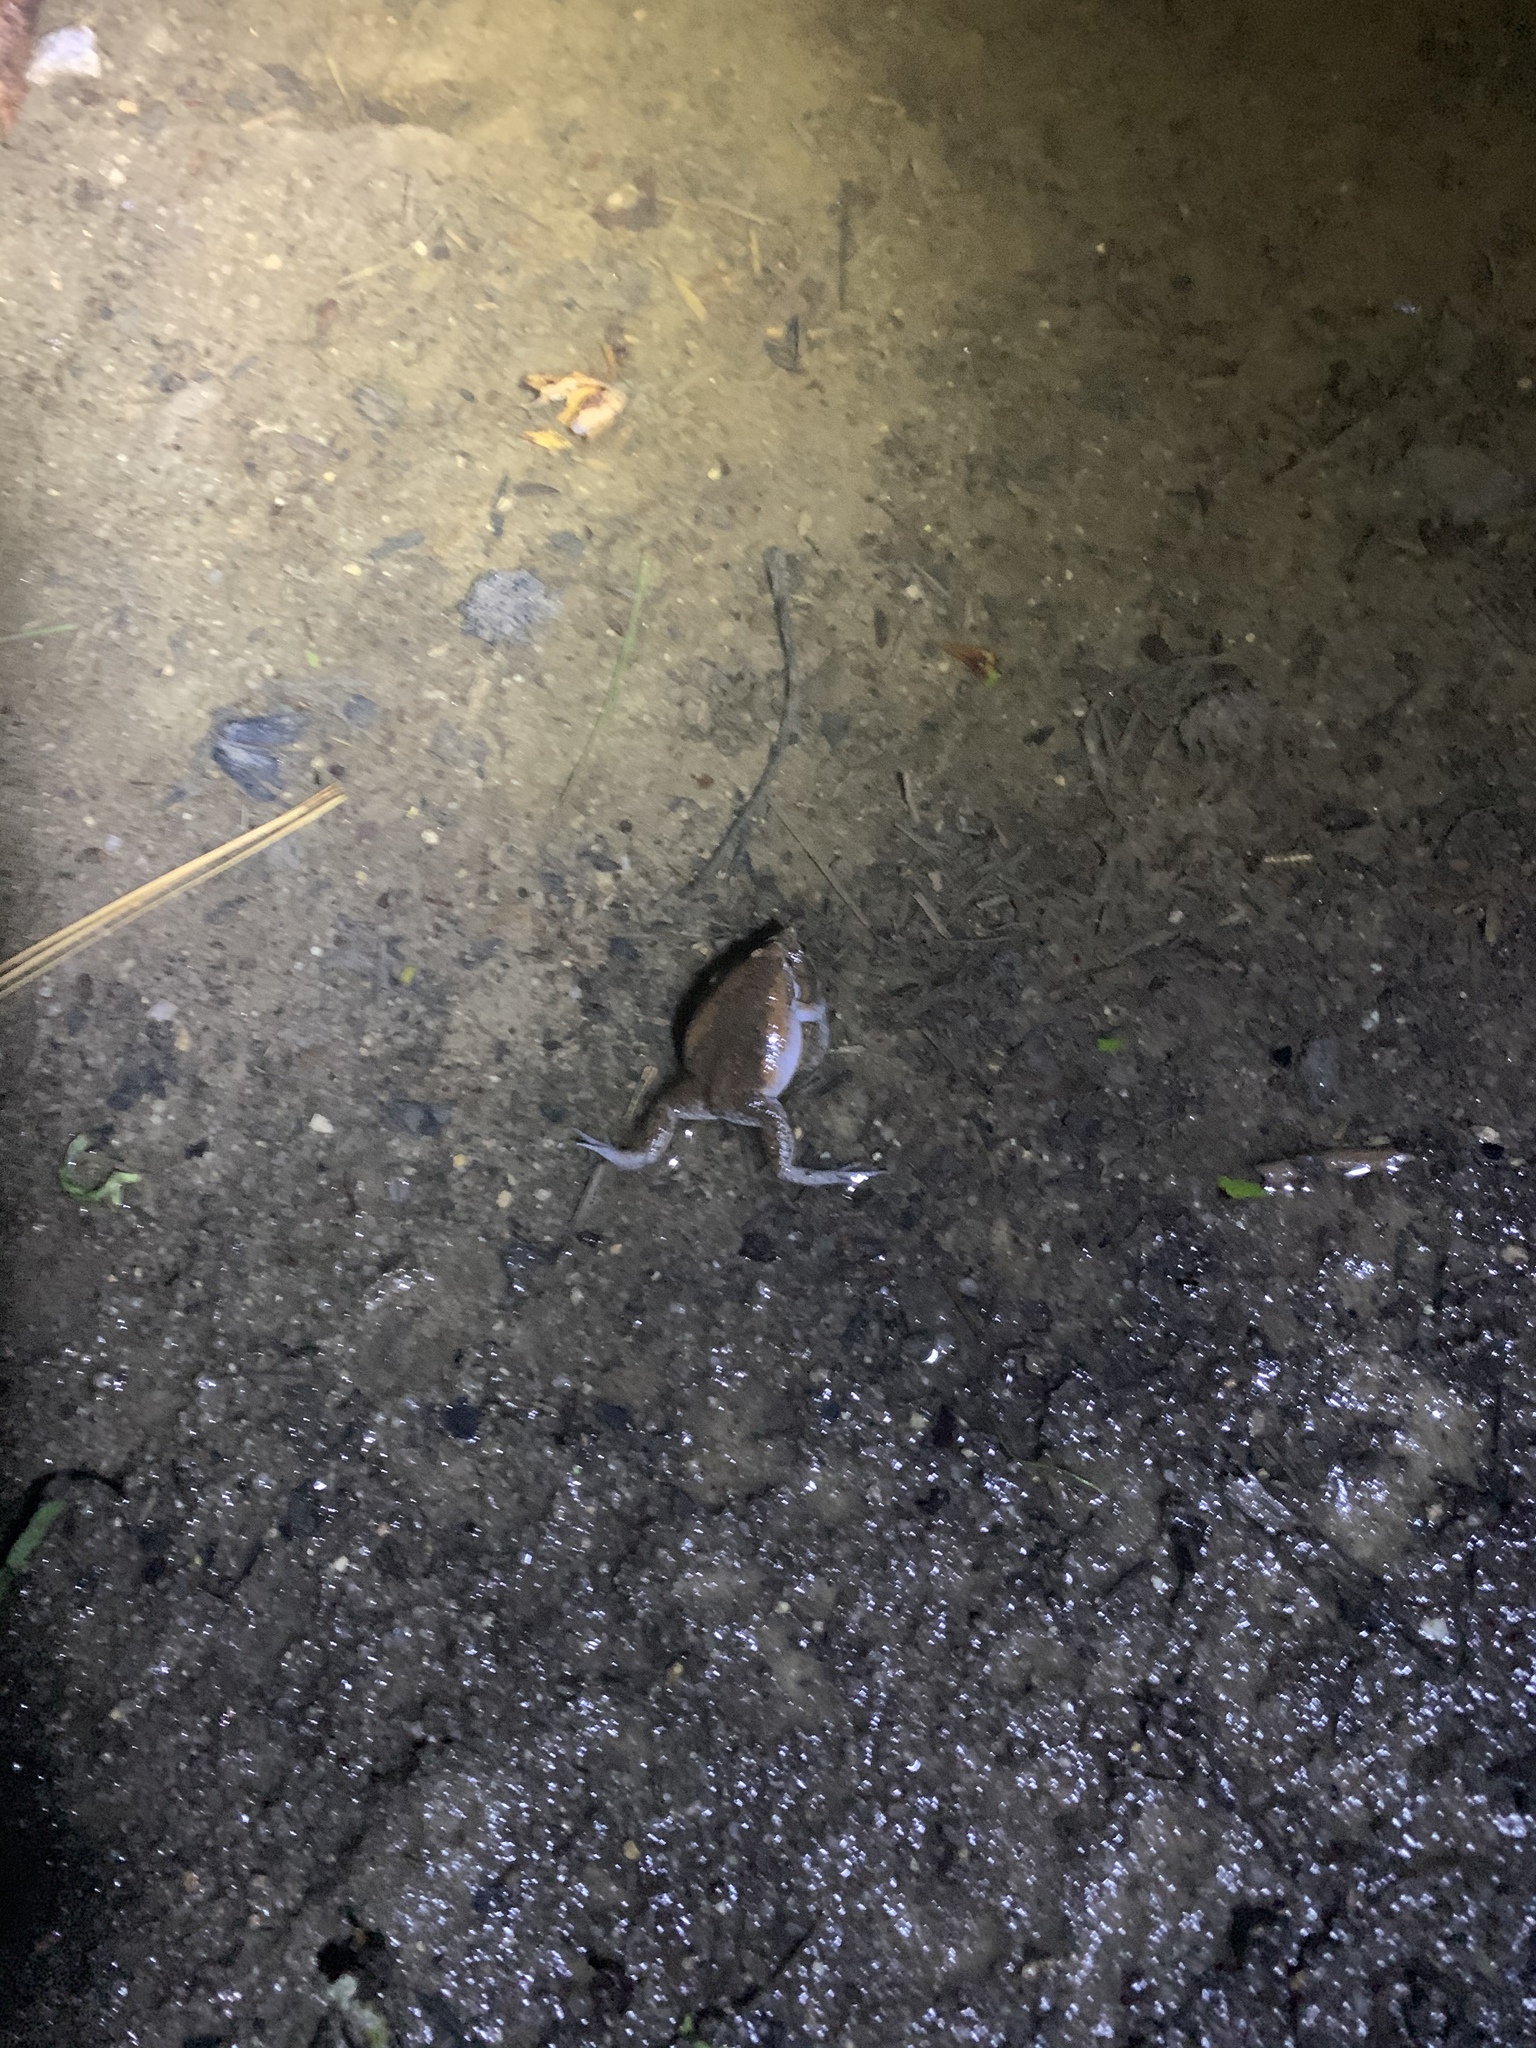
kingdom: Animalia
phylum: Chordata
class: Amphibia
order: Anura
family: Microhylidae
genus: Gastrophryne
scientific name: Gastrophryne carolinensis
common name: Eastern narrowmouth toad
